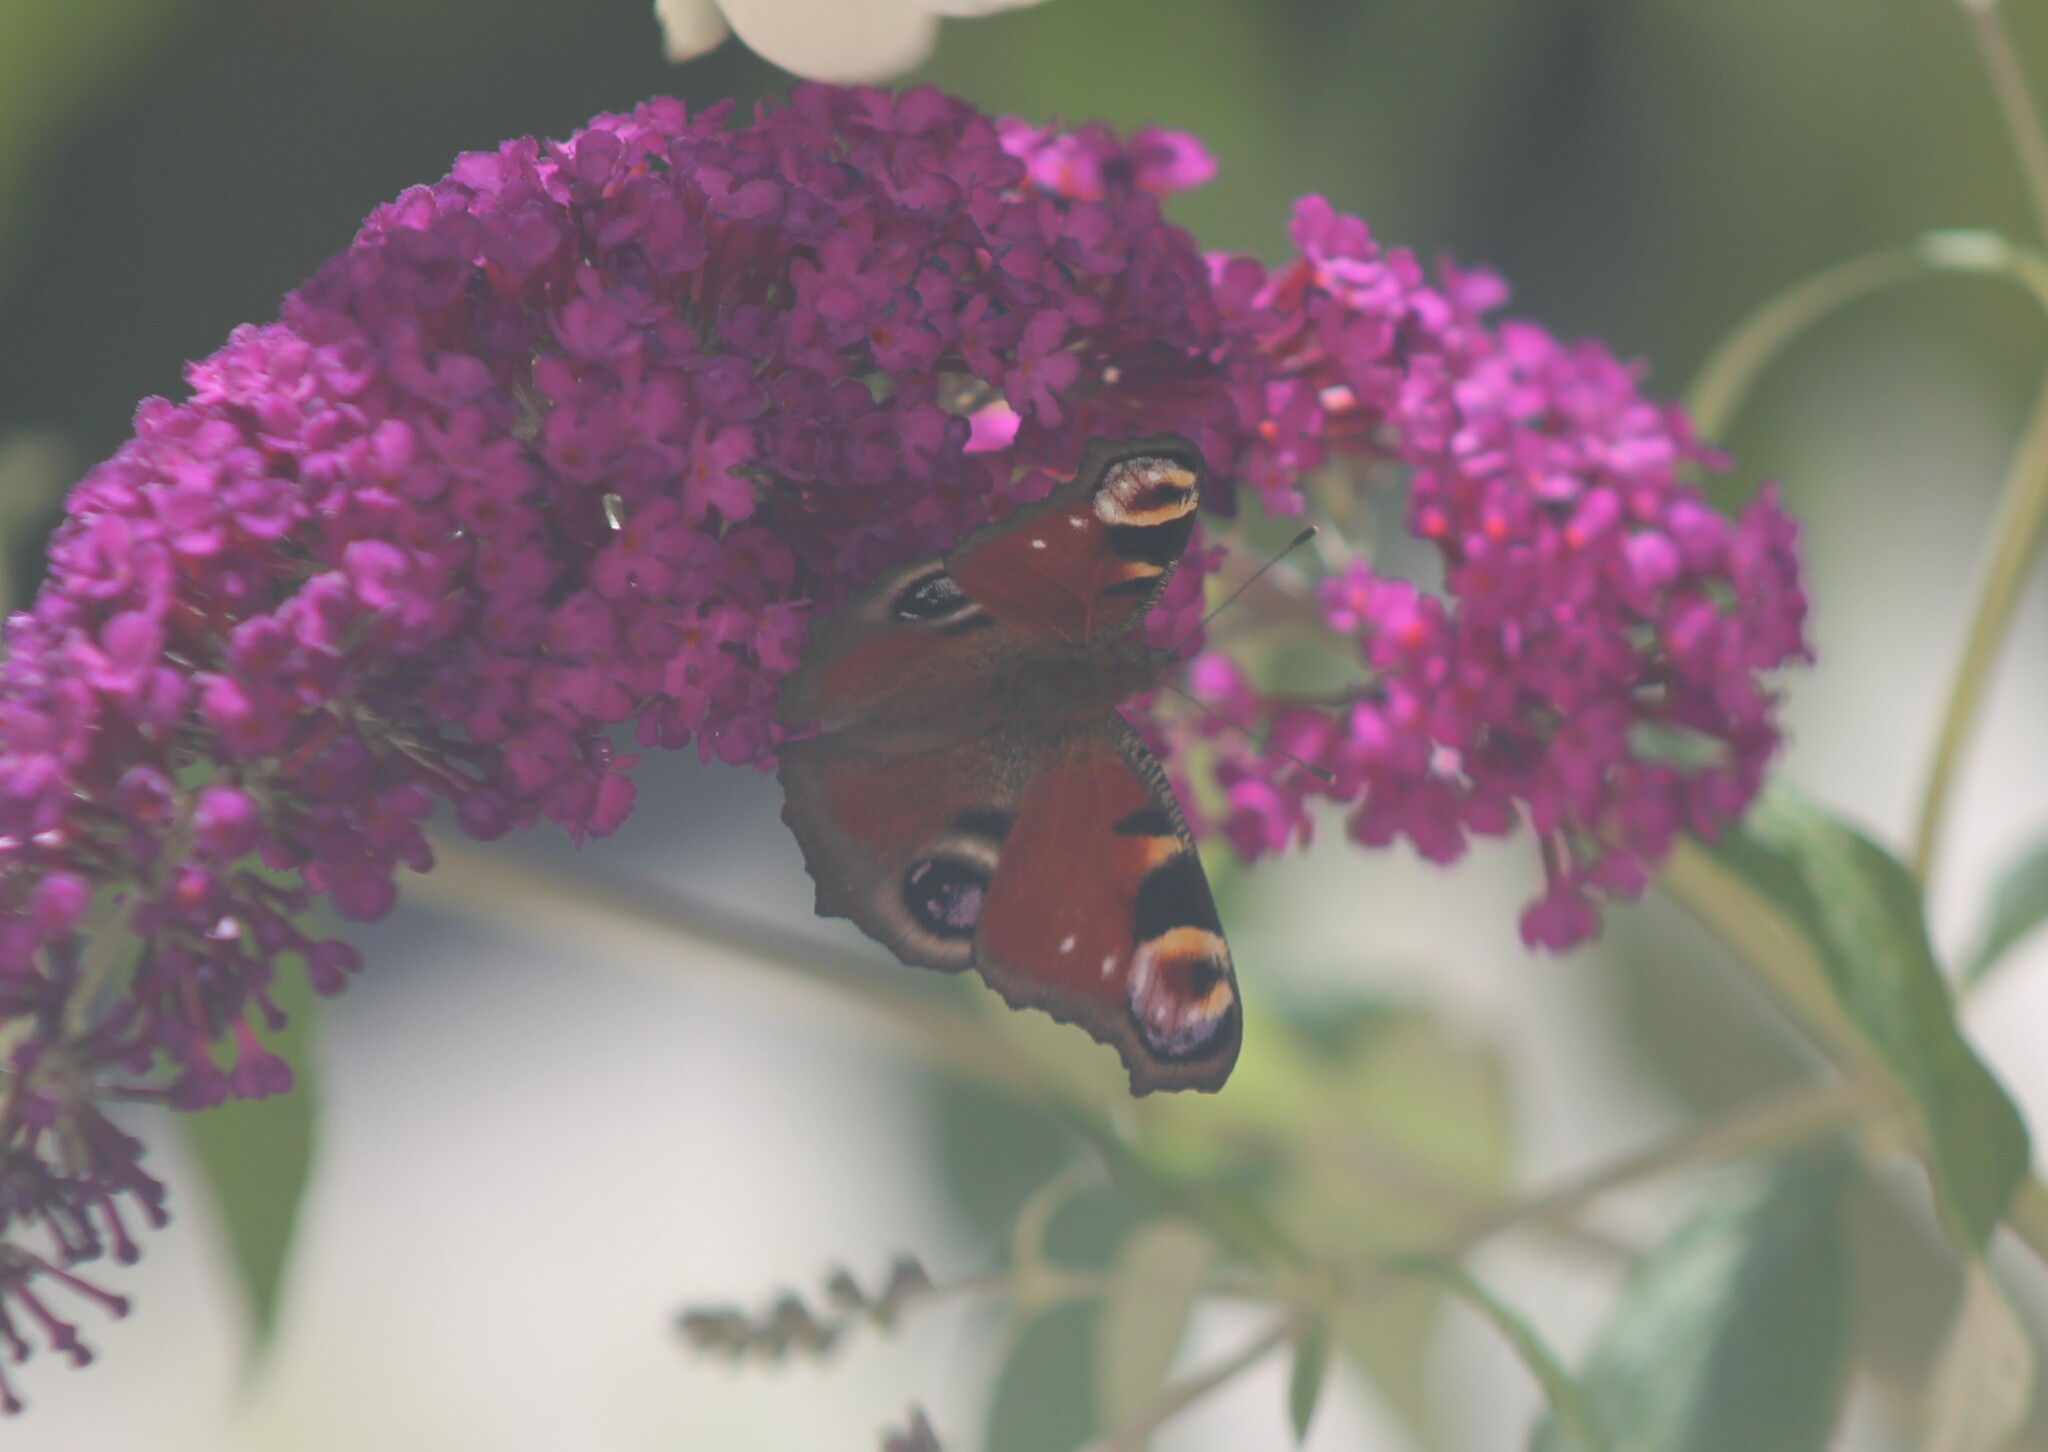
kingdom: Animalia
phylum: Arthropoda
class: Insecta
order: Lepidoptera
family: Nymphalidae
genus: Aglais
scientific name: Aglais io
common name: Peacock
